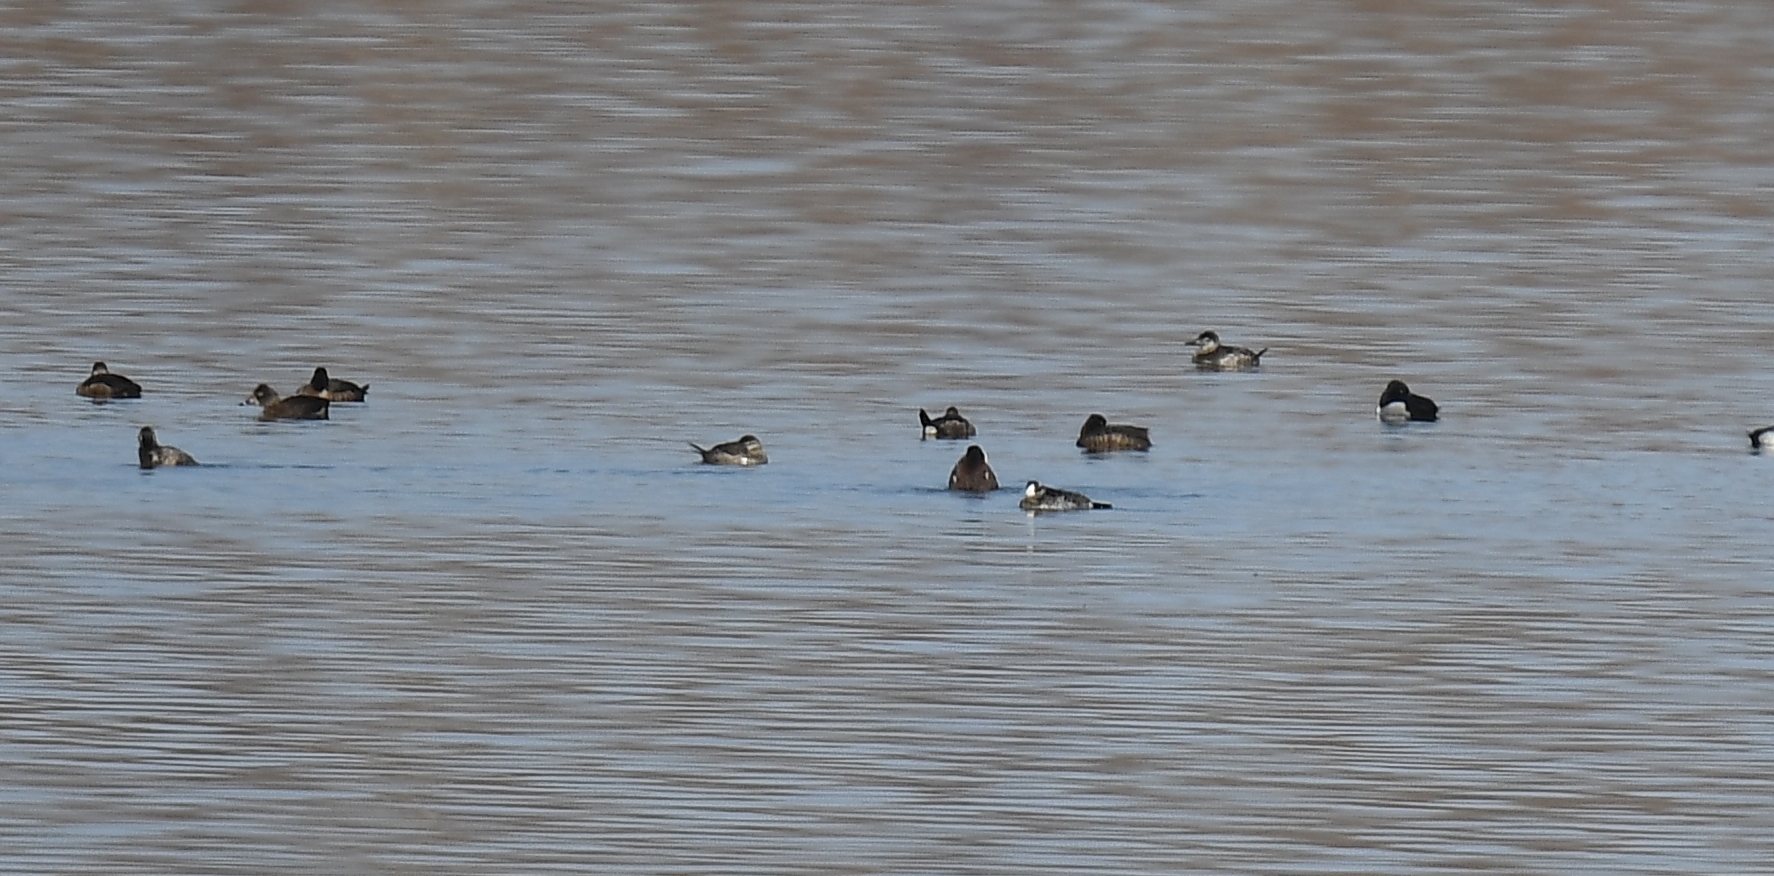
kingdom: Animalia
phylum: Chordata
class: Aves
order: Anseriformes
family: Anatidae
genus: Oxyura
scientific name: Oxyura jamaicensis
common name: Ruddy duck
